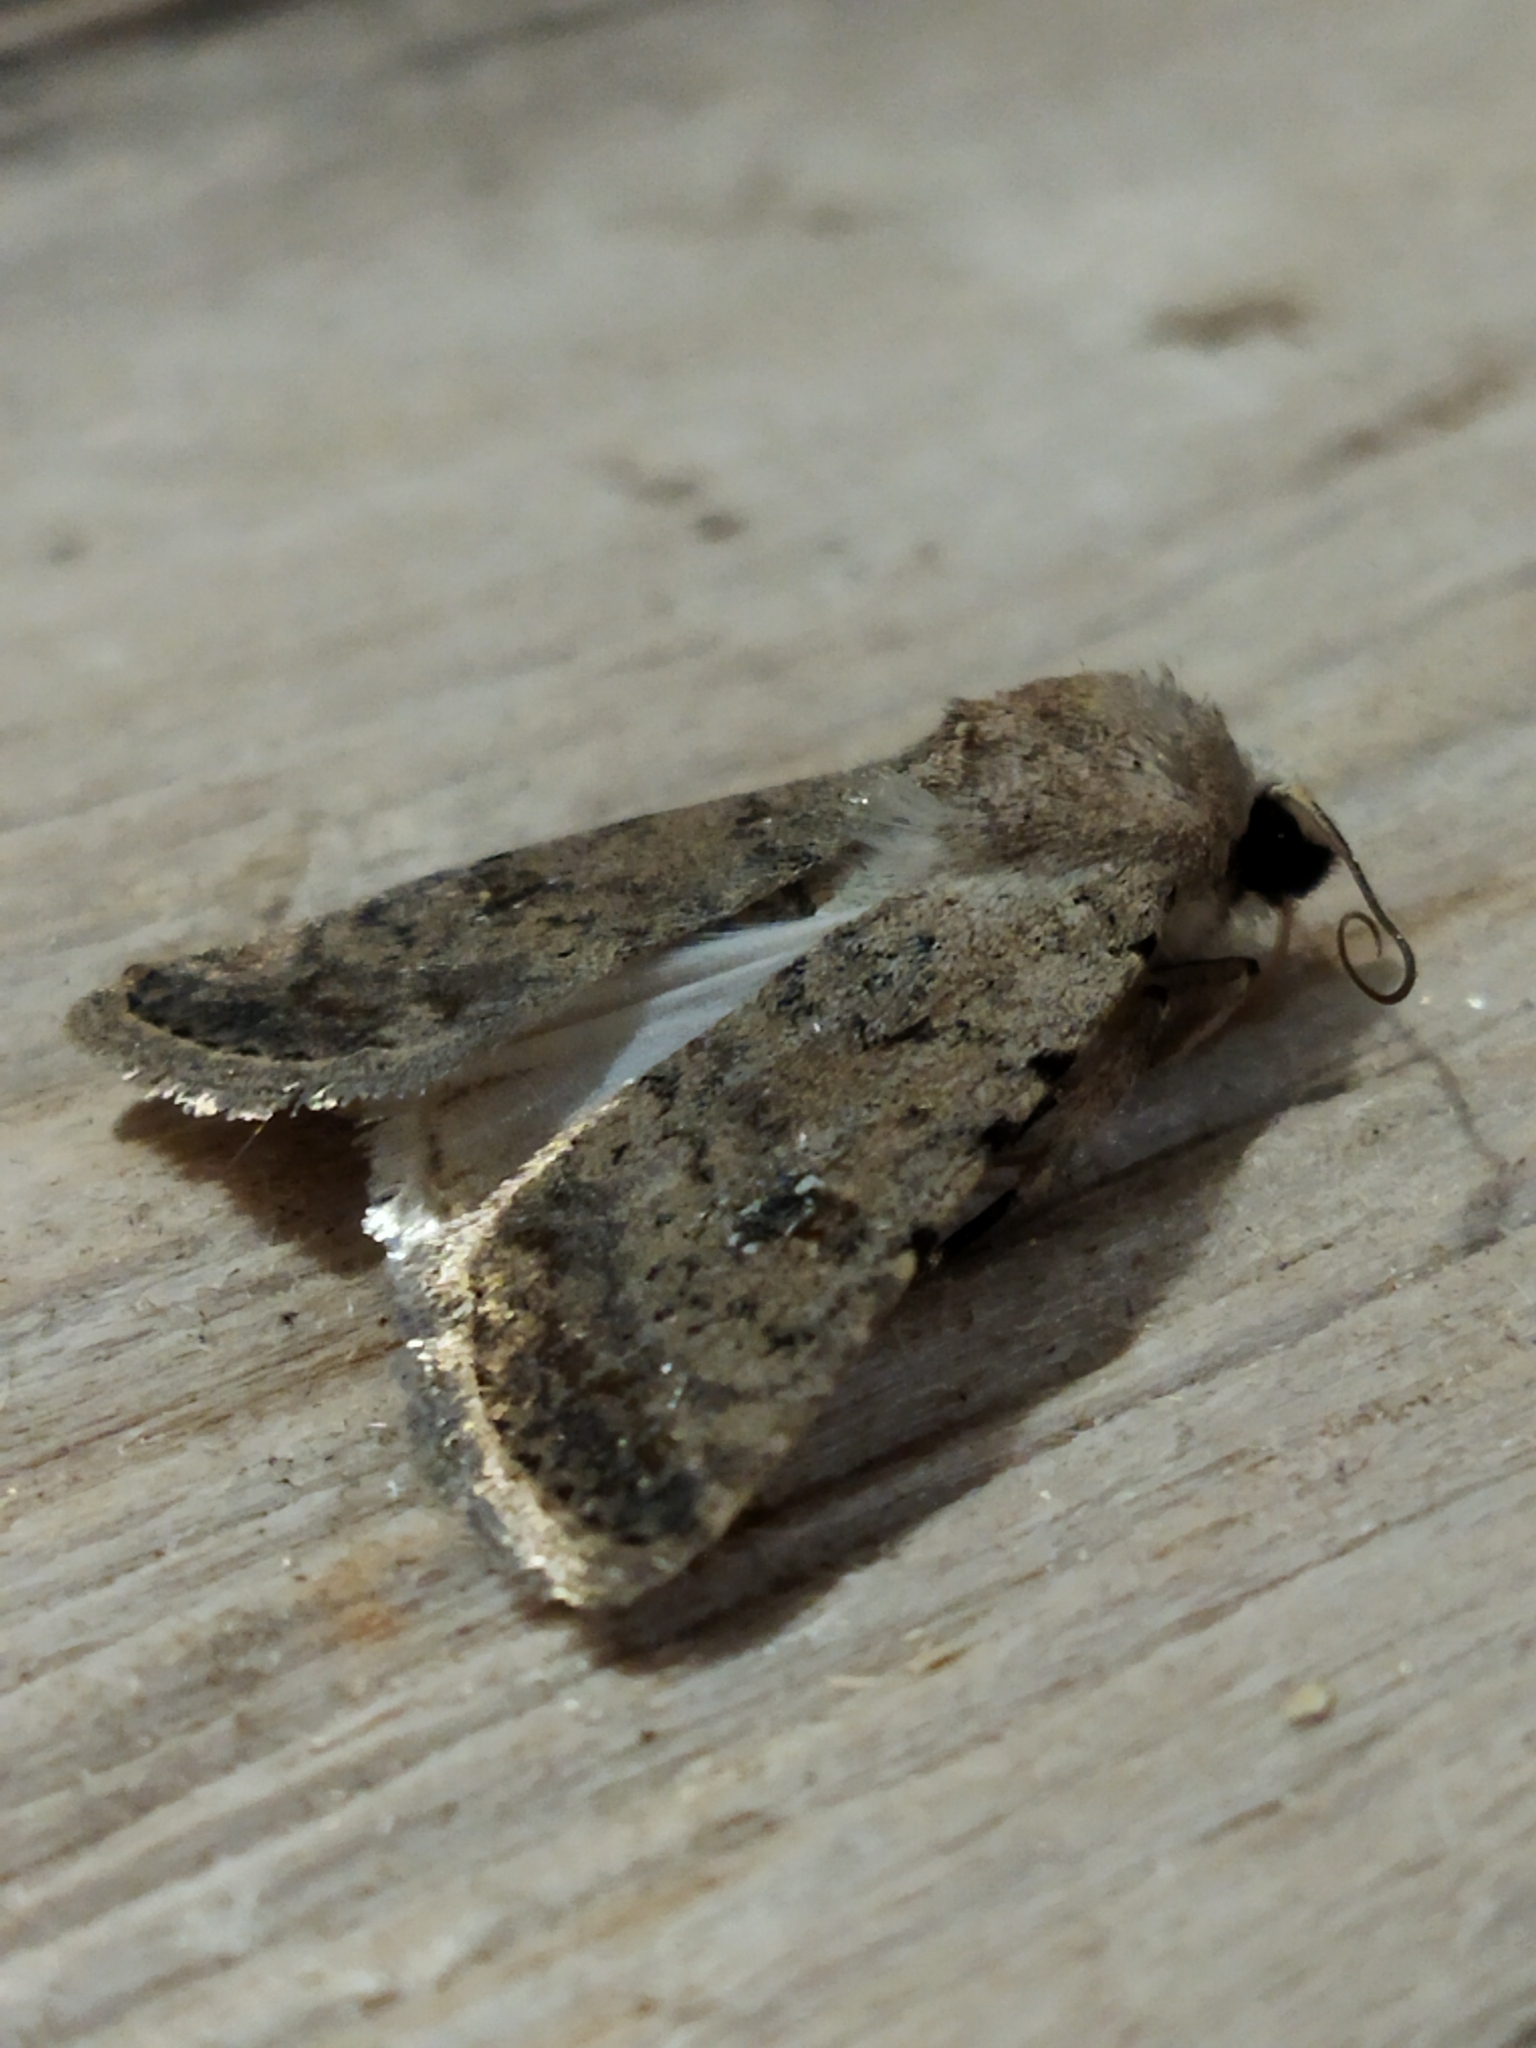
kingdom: Animalia
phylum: Arthropoda
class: Insecta
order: Lepidoptera
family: Noctuidae
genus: Caradrina
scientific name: Caradrina clavipalpis
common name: Pale mottled willow
